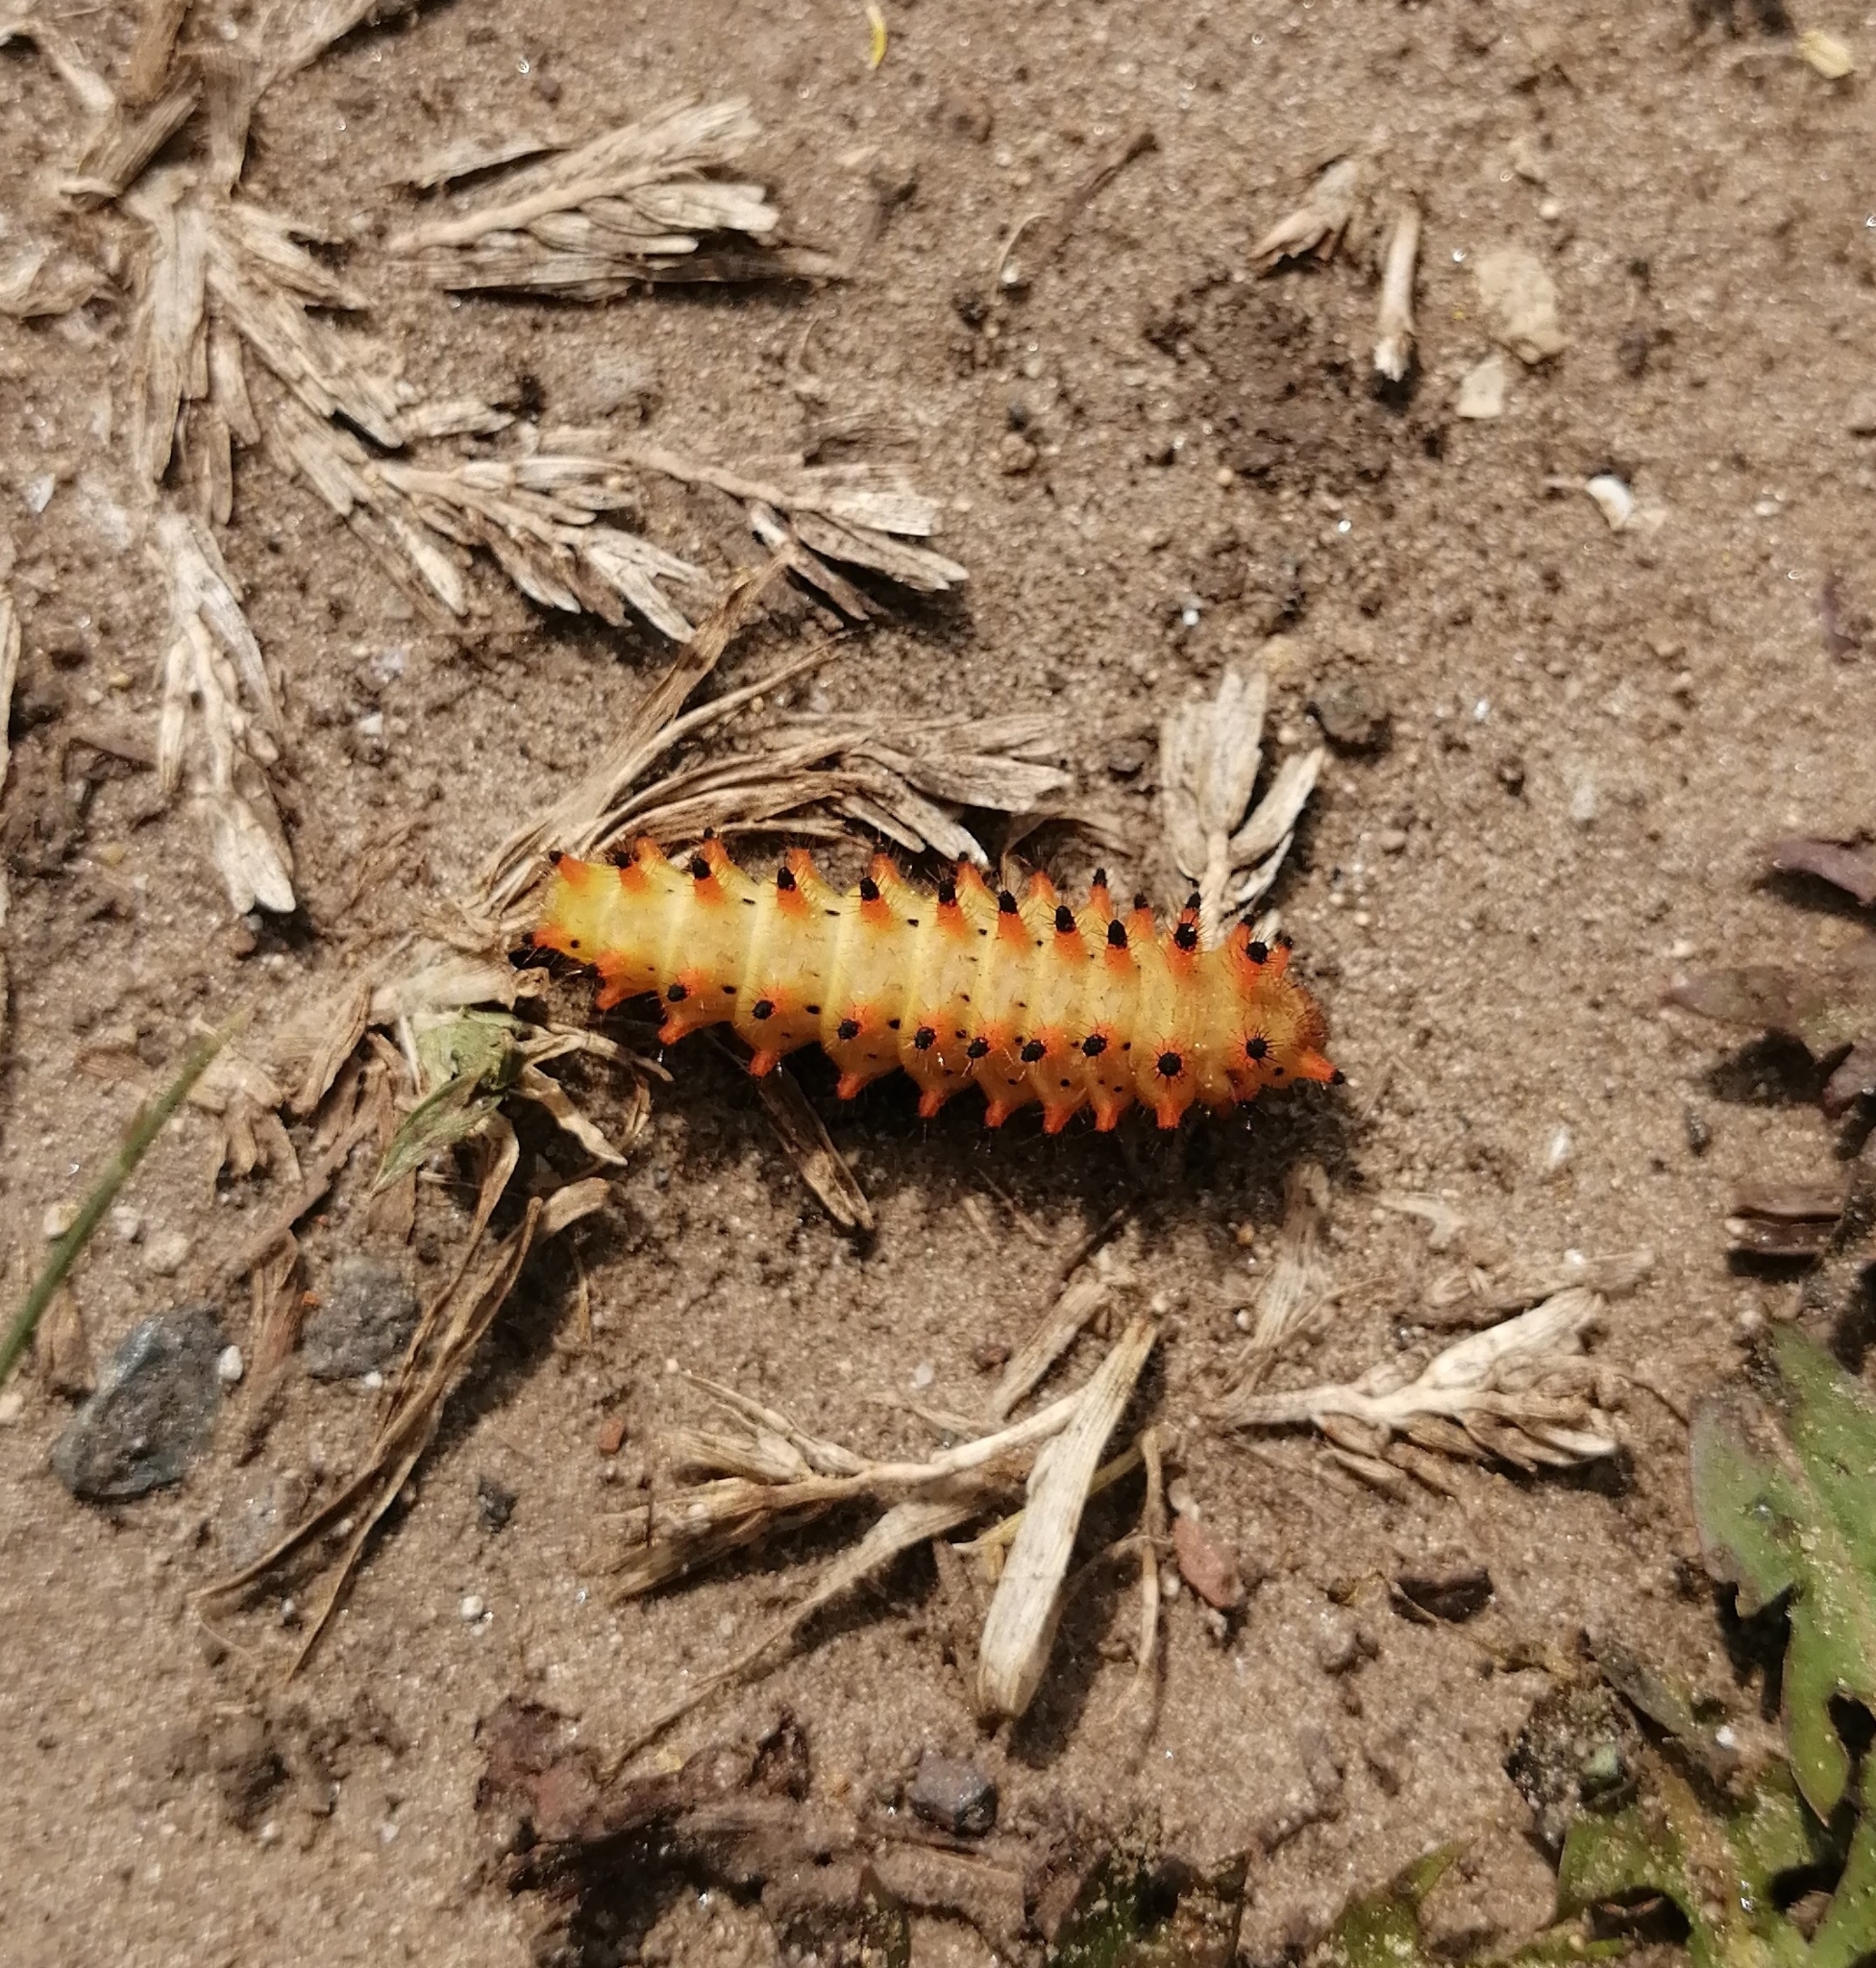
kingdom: Animalia
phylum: Arthropoda
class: Insecta
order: Lepidoptera
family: Papilionidae
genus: Zerynthia
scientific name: Zerynthia polyxena
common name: Southern festoon
